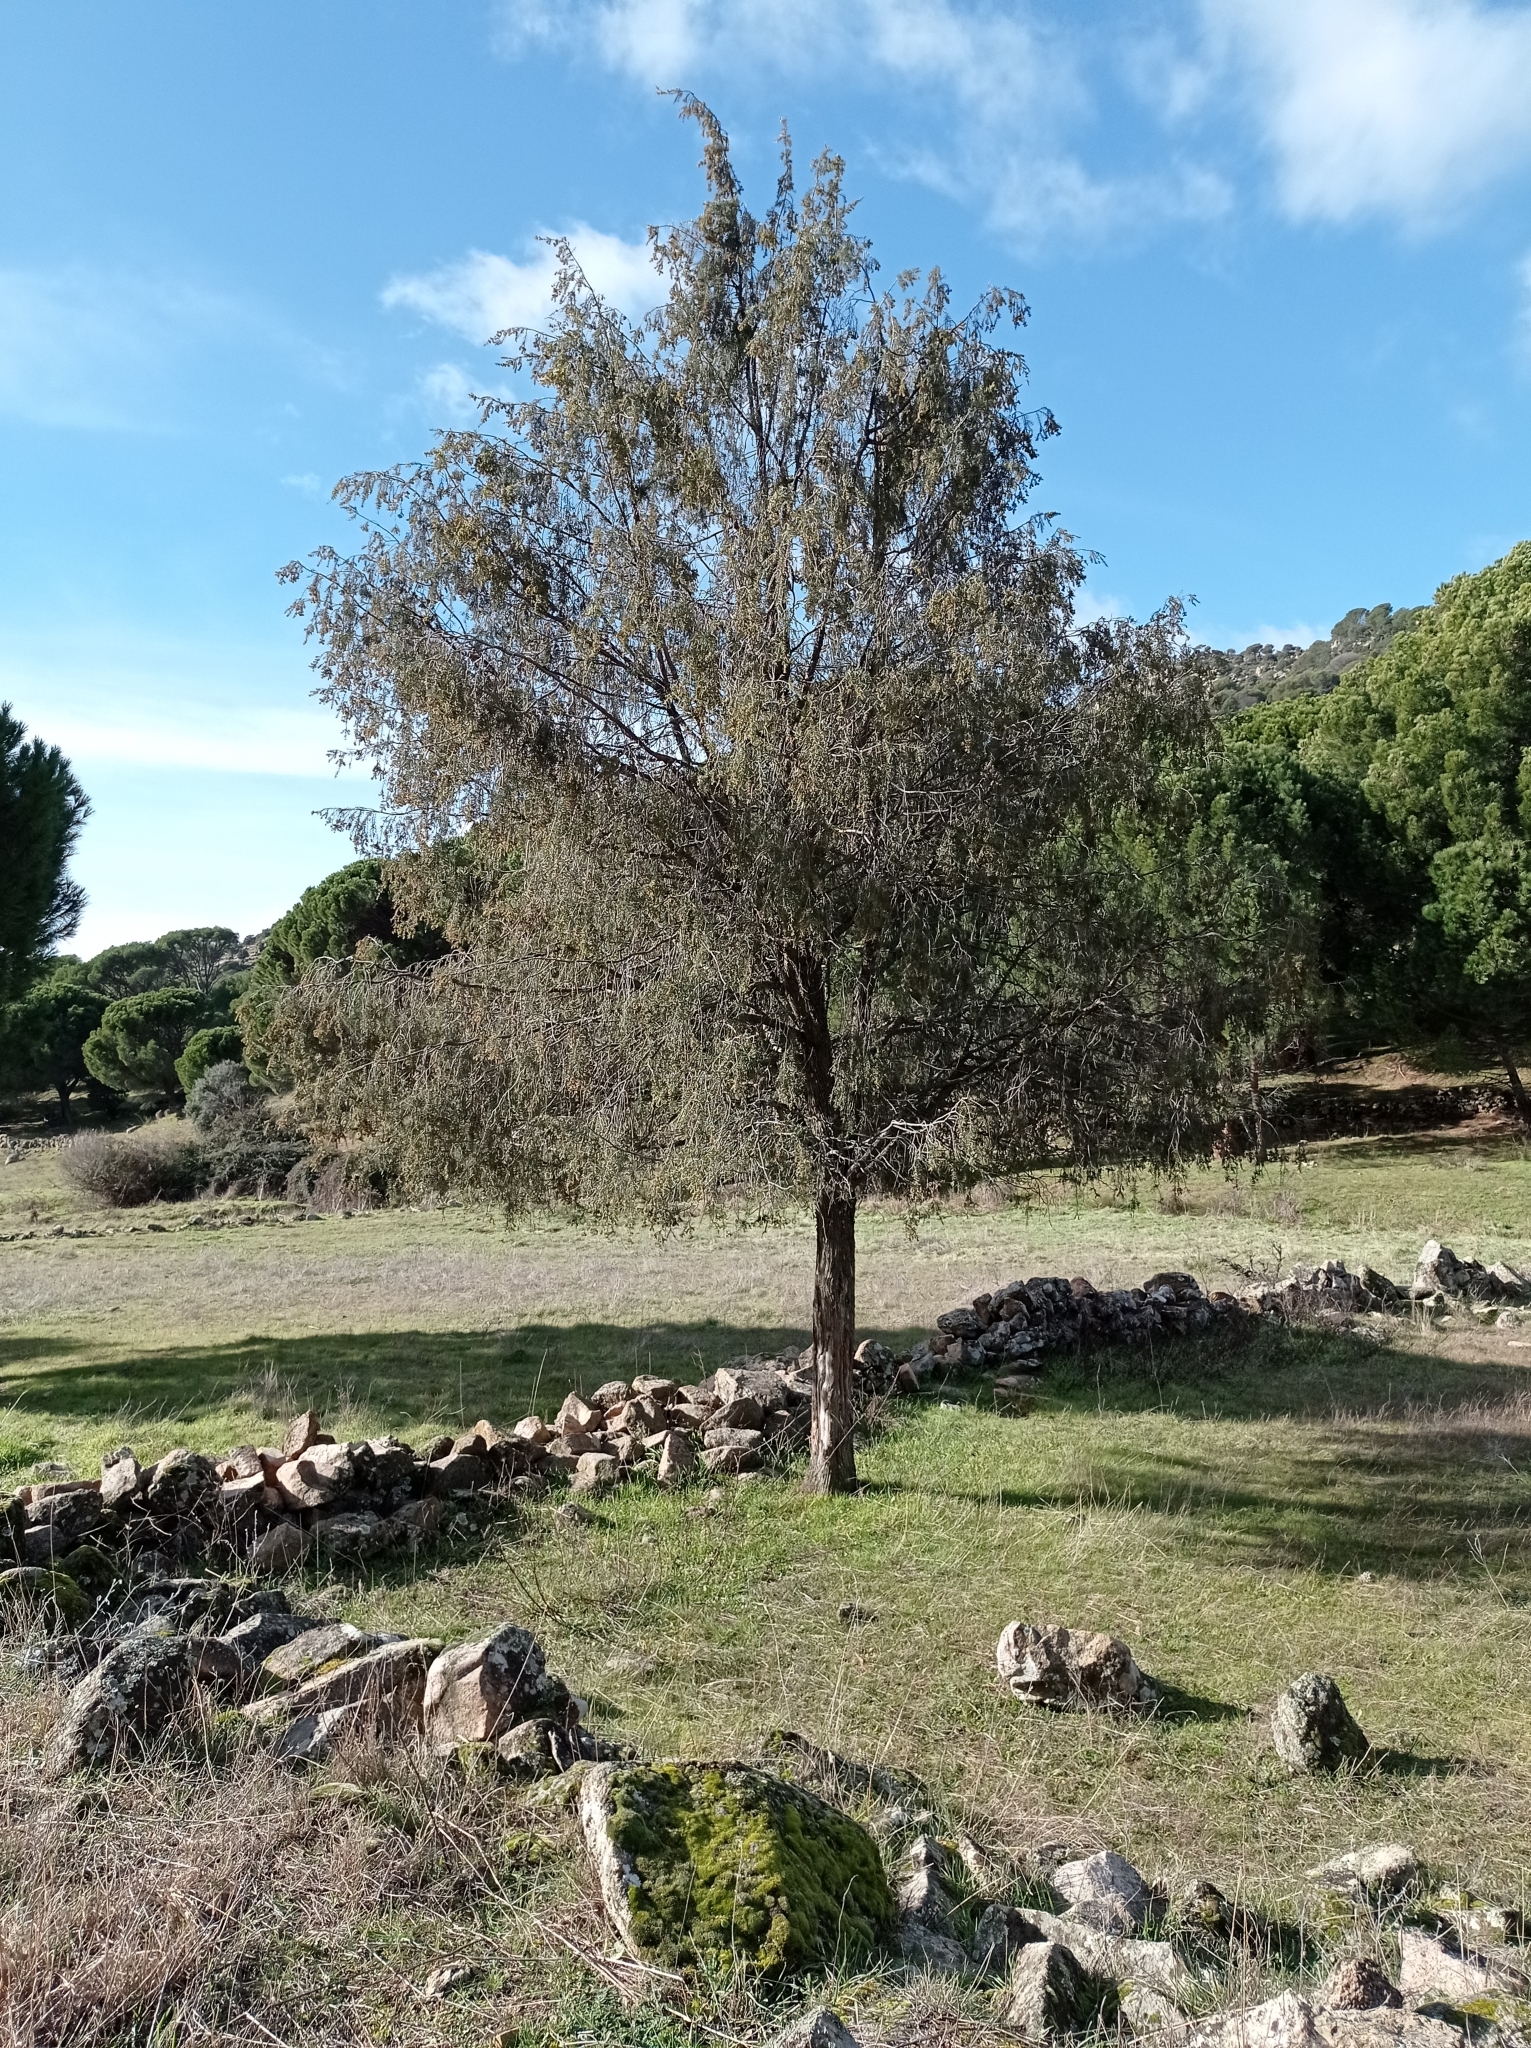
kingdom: Plantae
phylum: Tracheophyta
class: Pinopsida
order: Pinales
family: Cupressaceae
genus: Juniperus
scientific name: Juniperus oxycedrus
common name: Prickly juniper
